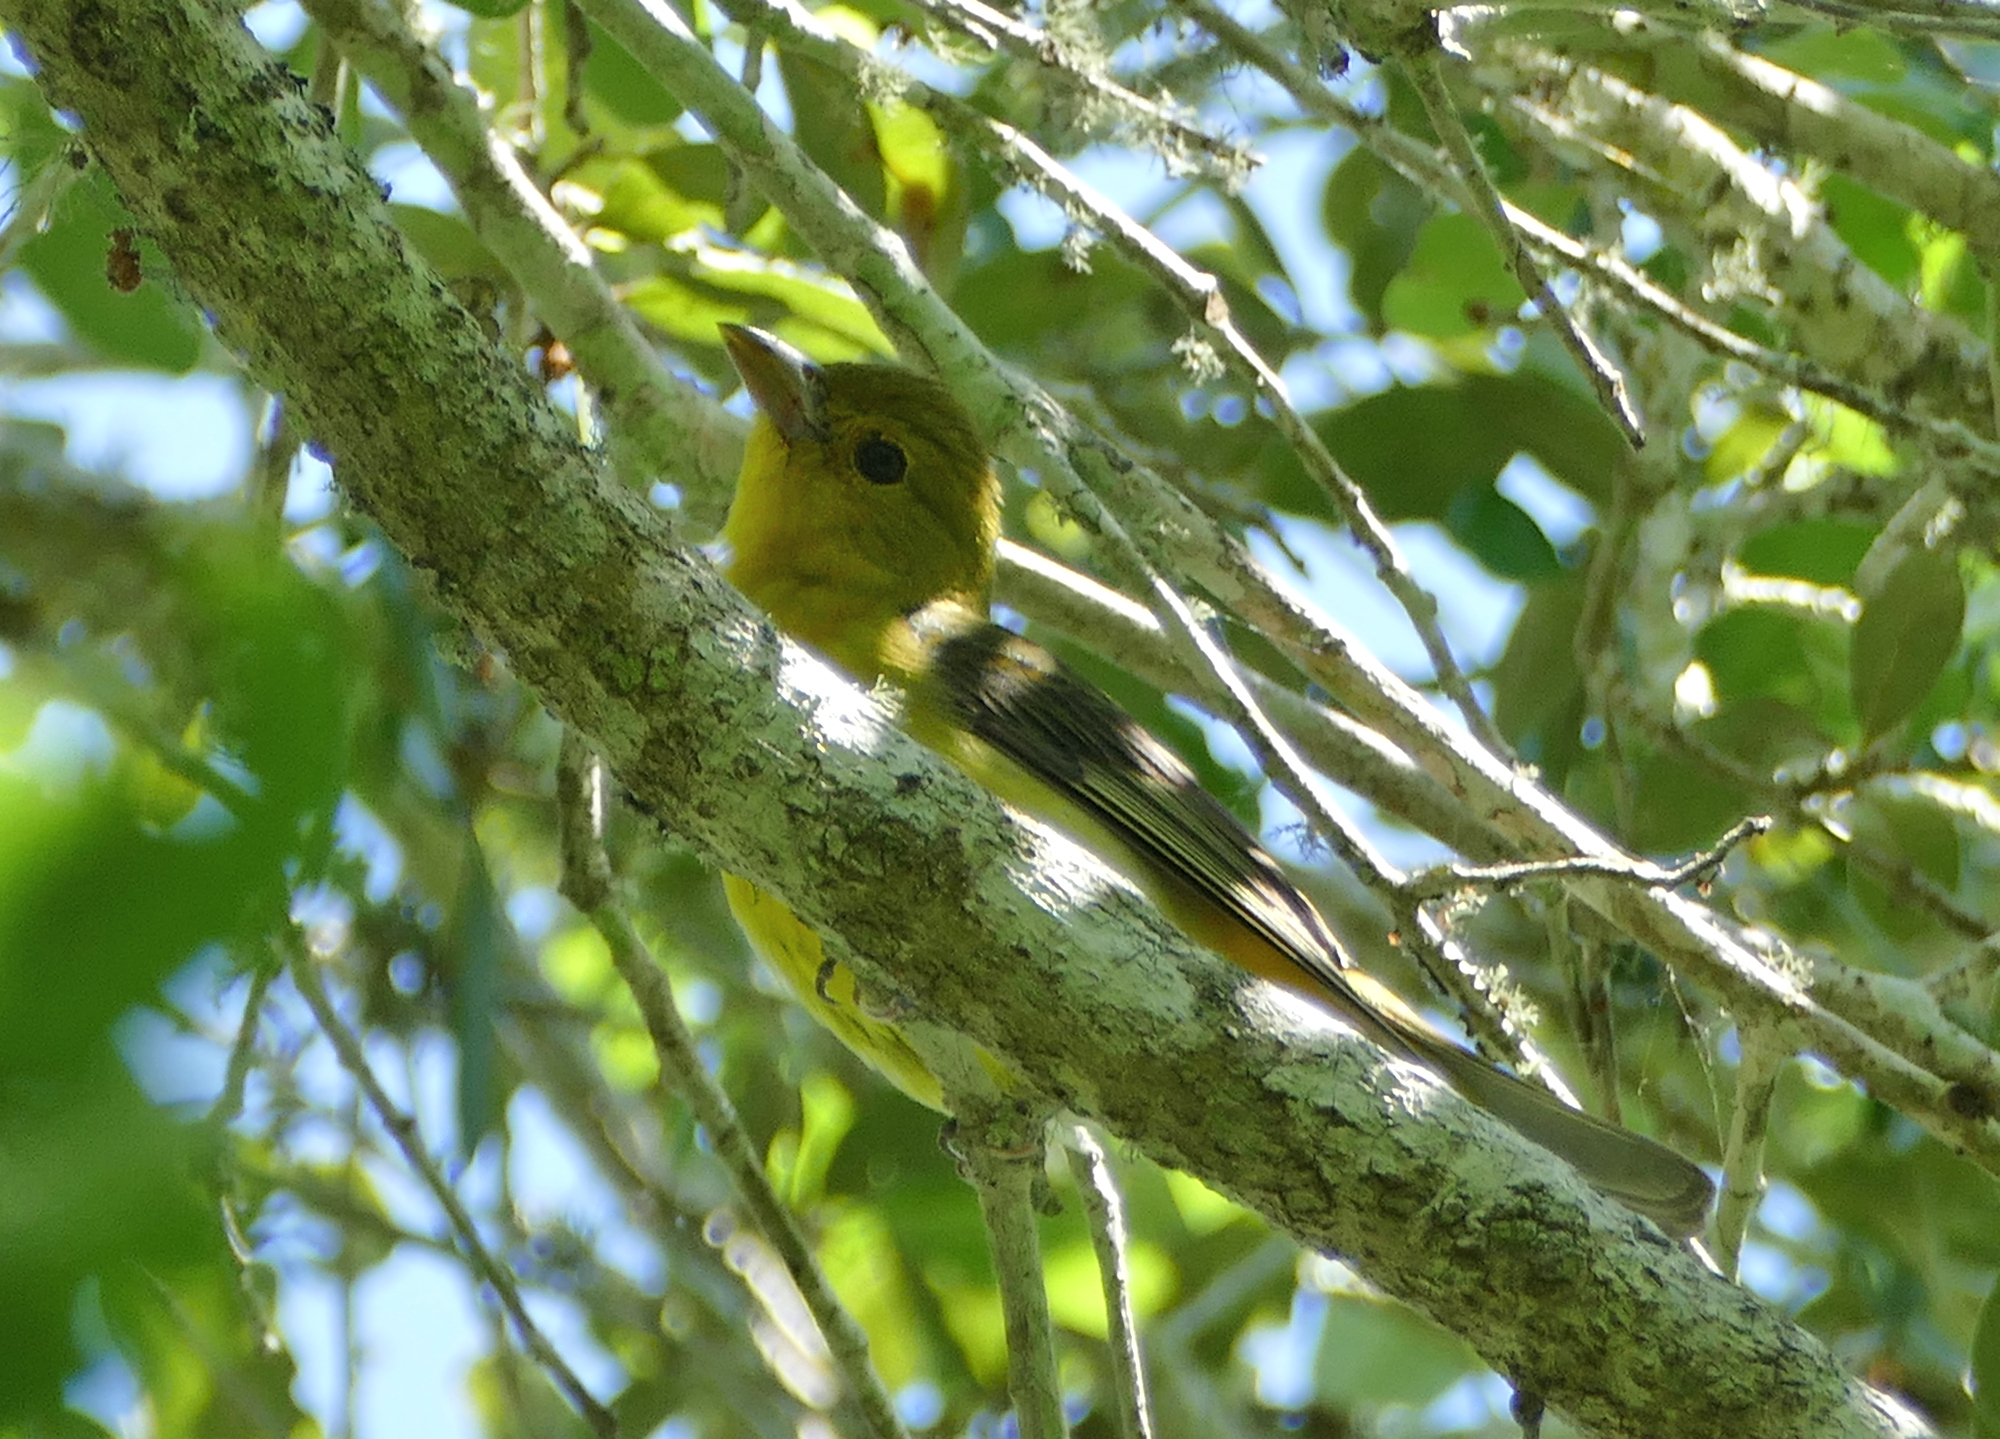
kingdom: Animalia
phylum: Chordata
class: Aves
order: Passeriformes
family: Cardinalidae
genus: Piranga
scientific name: Piranga olivacea
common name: Scarlet tanager
